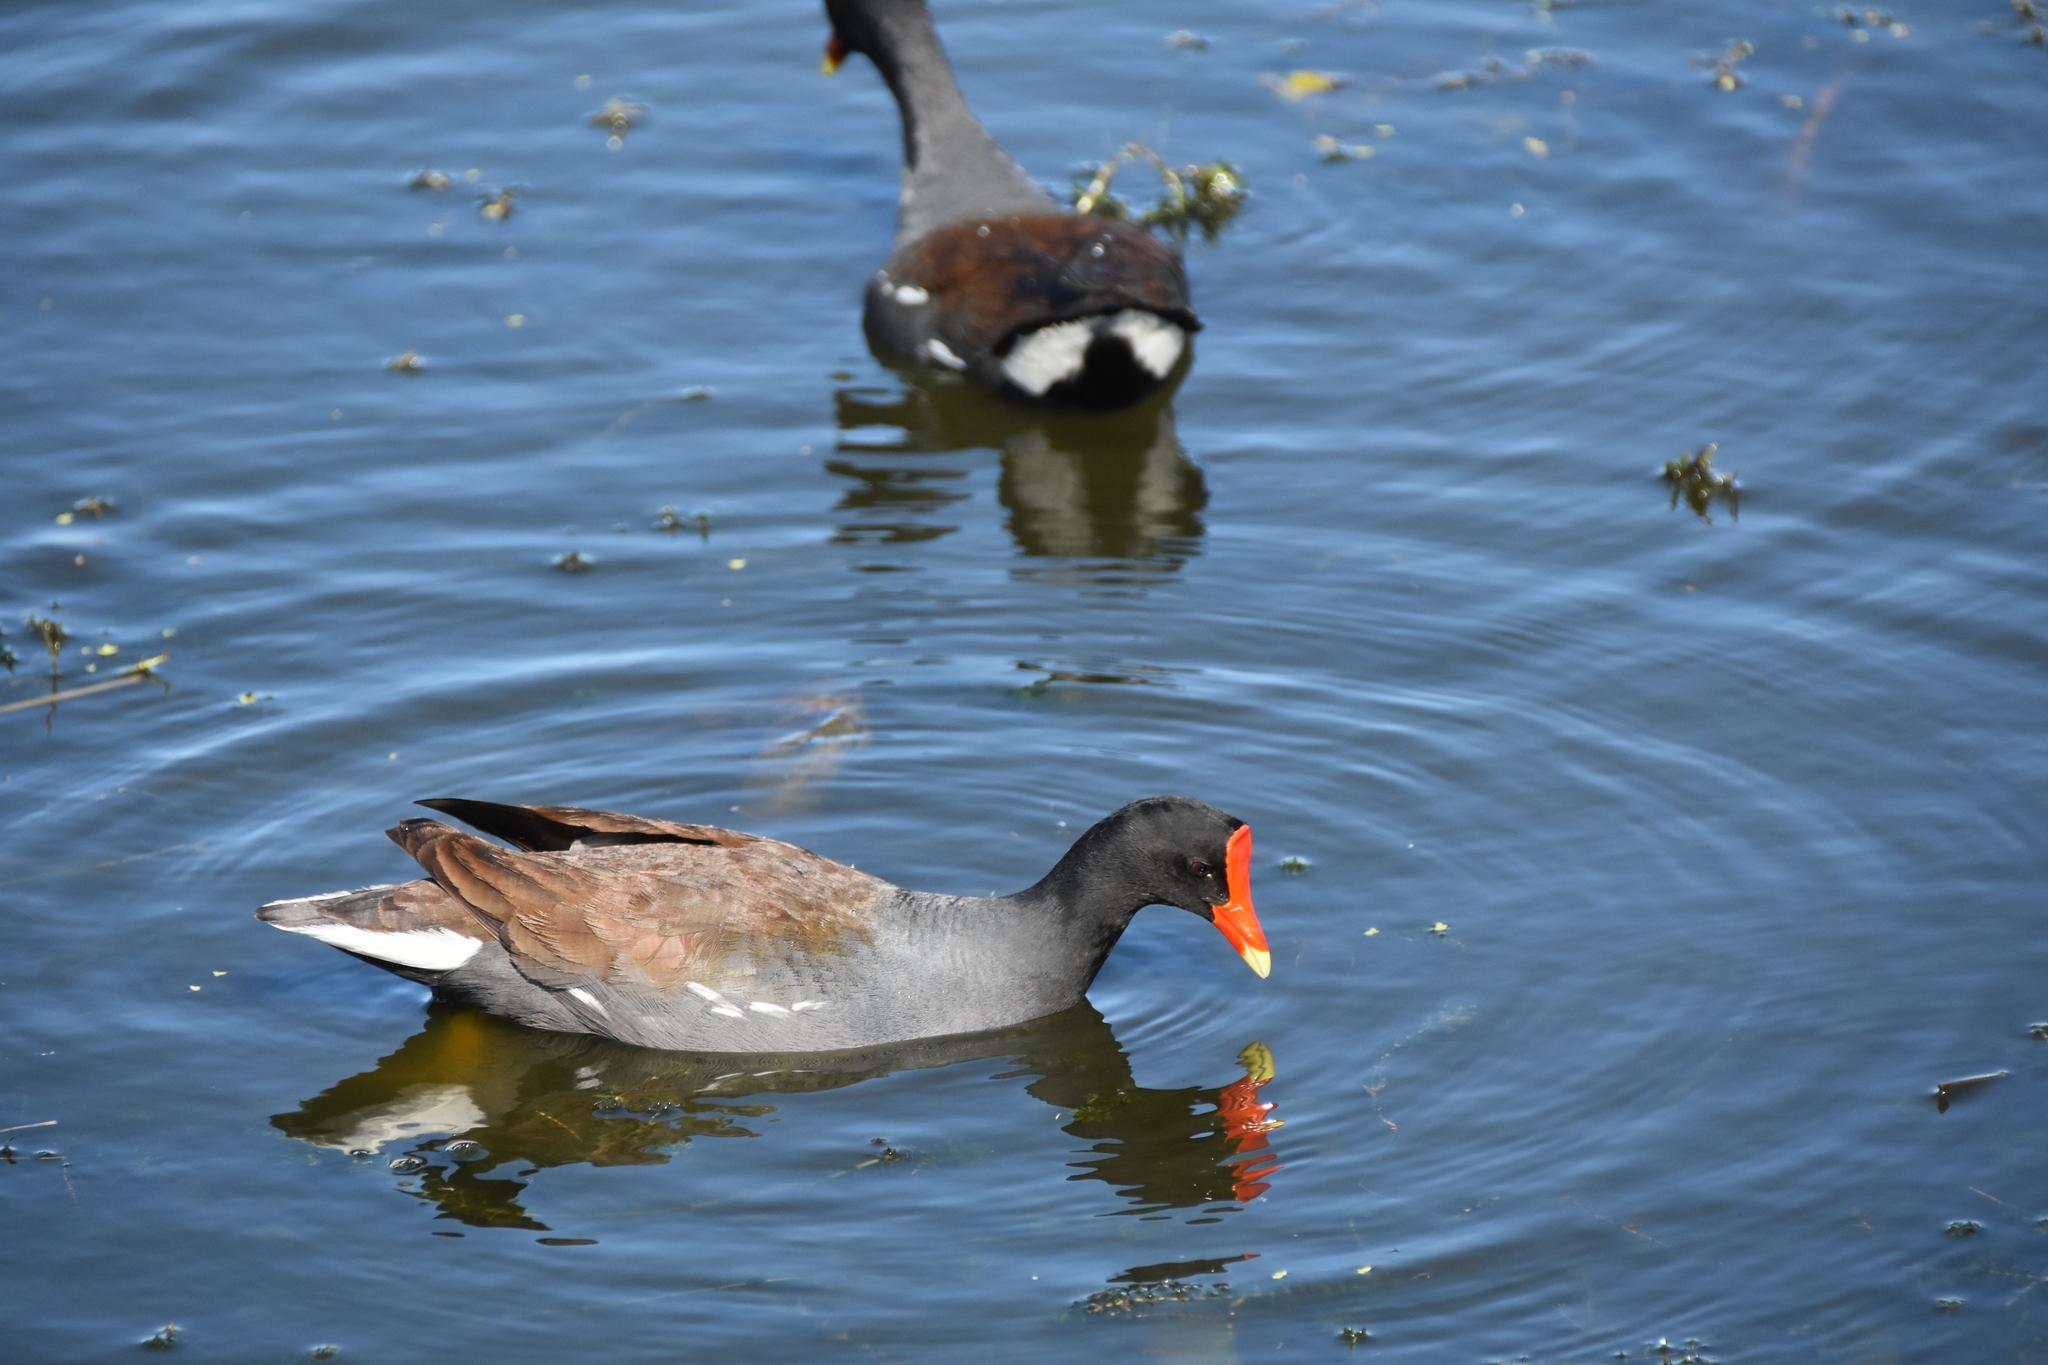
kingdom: Animalia
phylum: Chordata
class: Aves
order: Gruiformes
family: Rallidae
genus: Gallinula
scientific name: Gallinula chloropus
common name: Common moorhen
